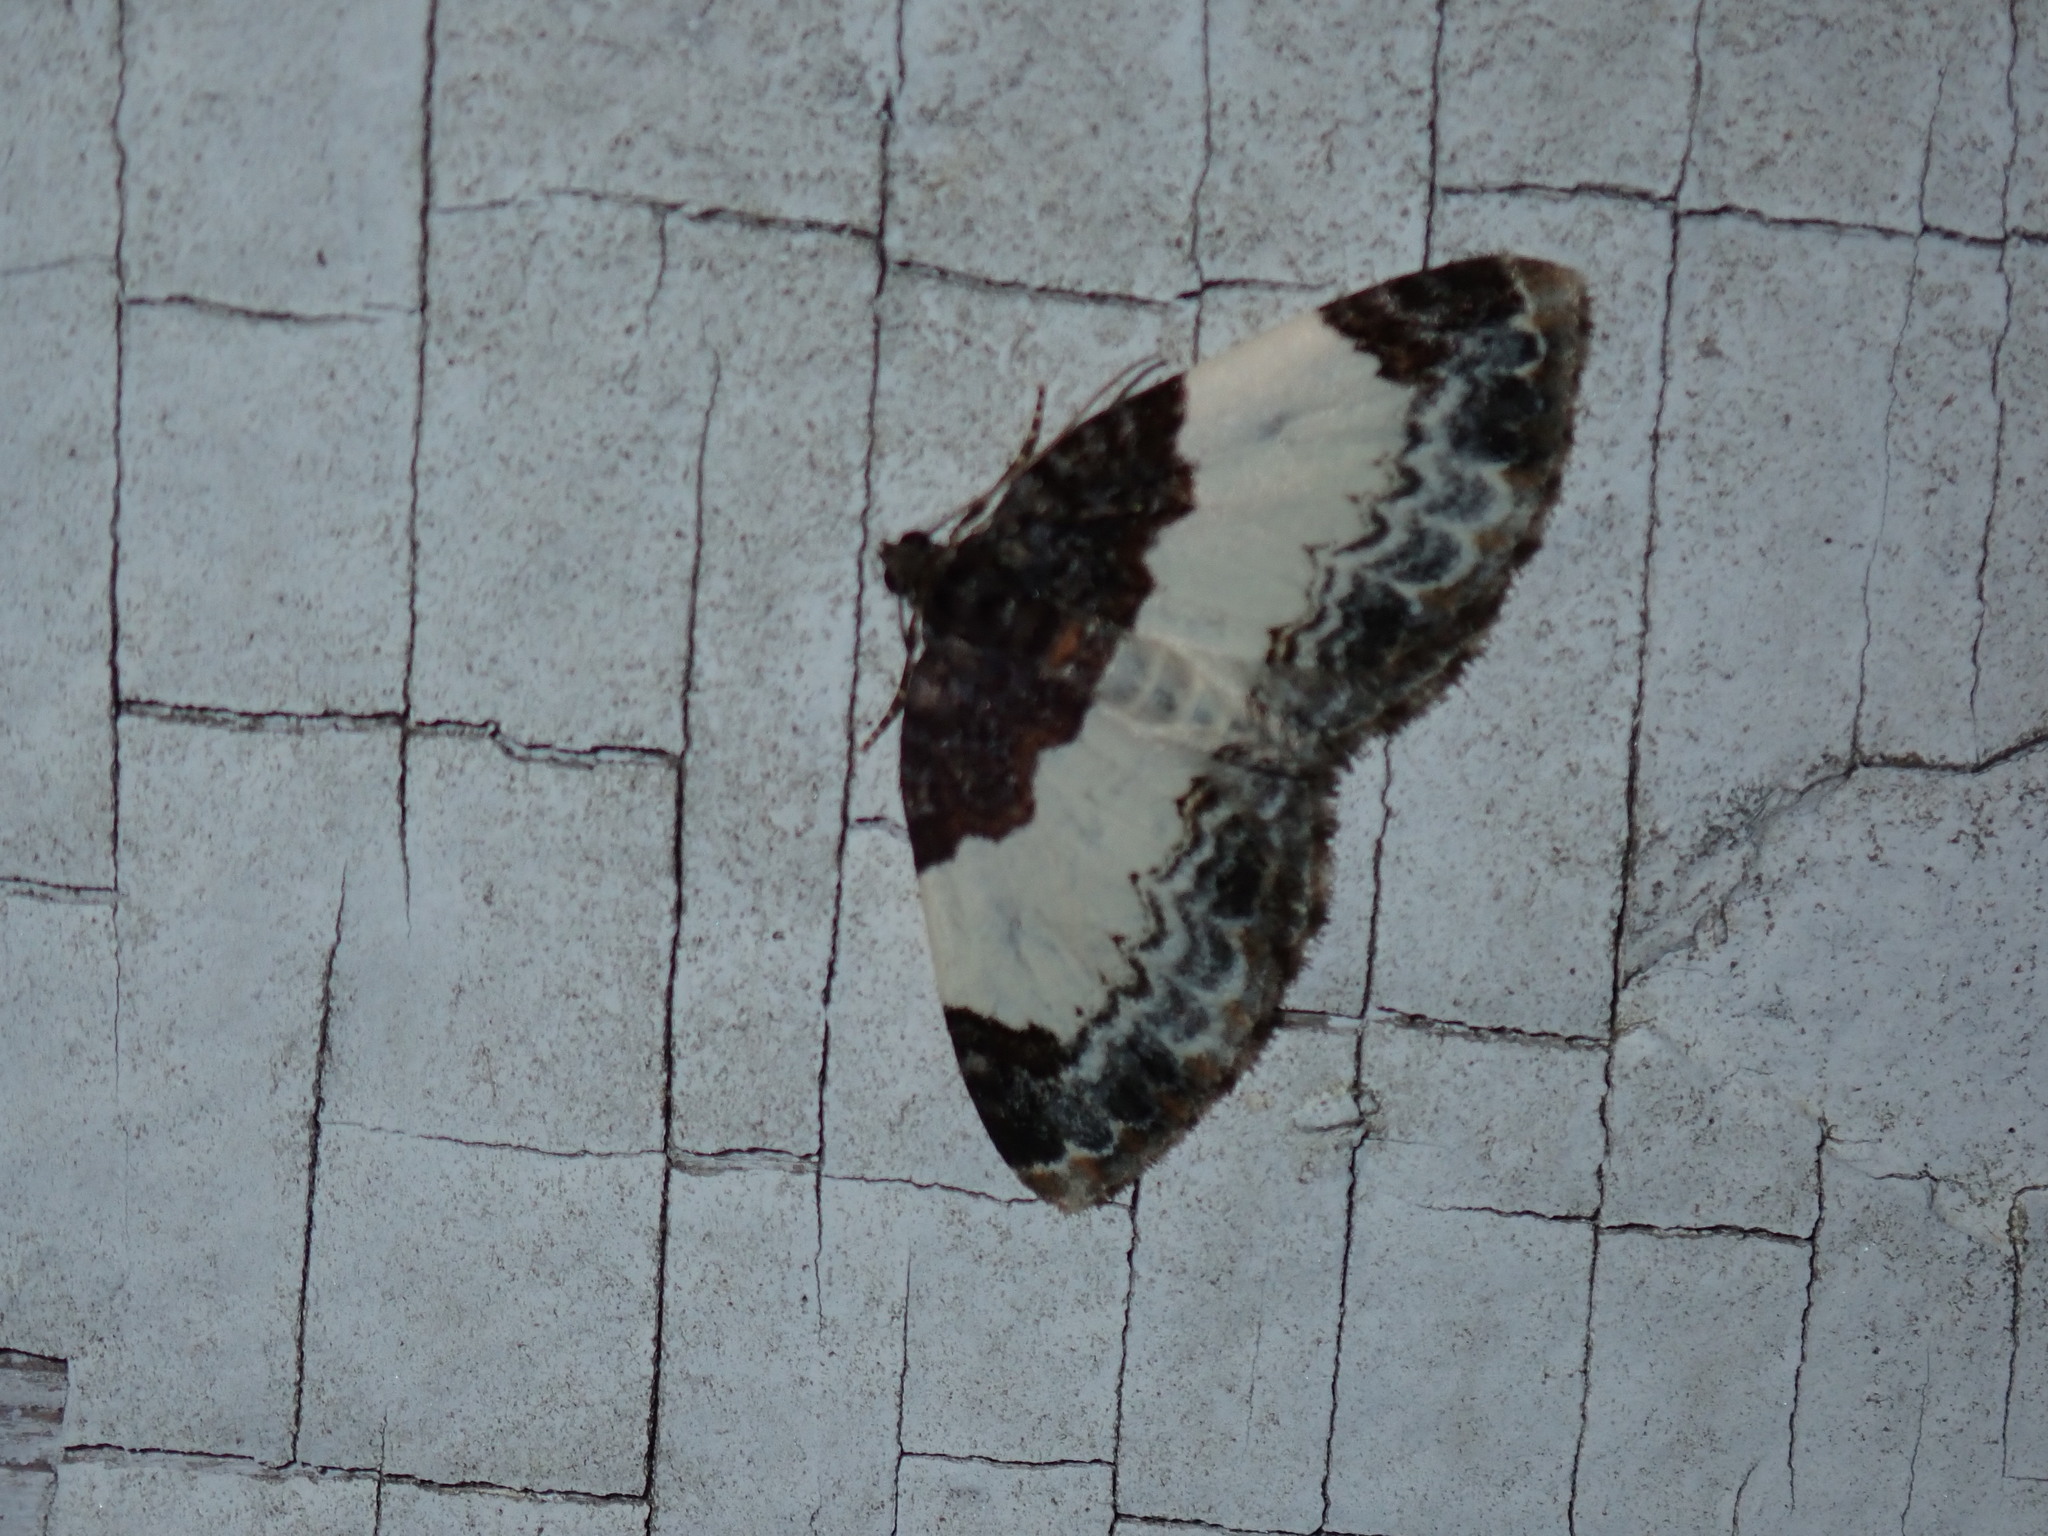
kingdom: Animalia
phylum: Arthropoda
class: Insecta
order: Lepidoptera
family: Geometridae
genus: Mesoleuca
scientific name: Mesoleuca ruficillata
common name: White-ribboned carpet moth
